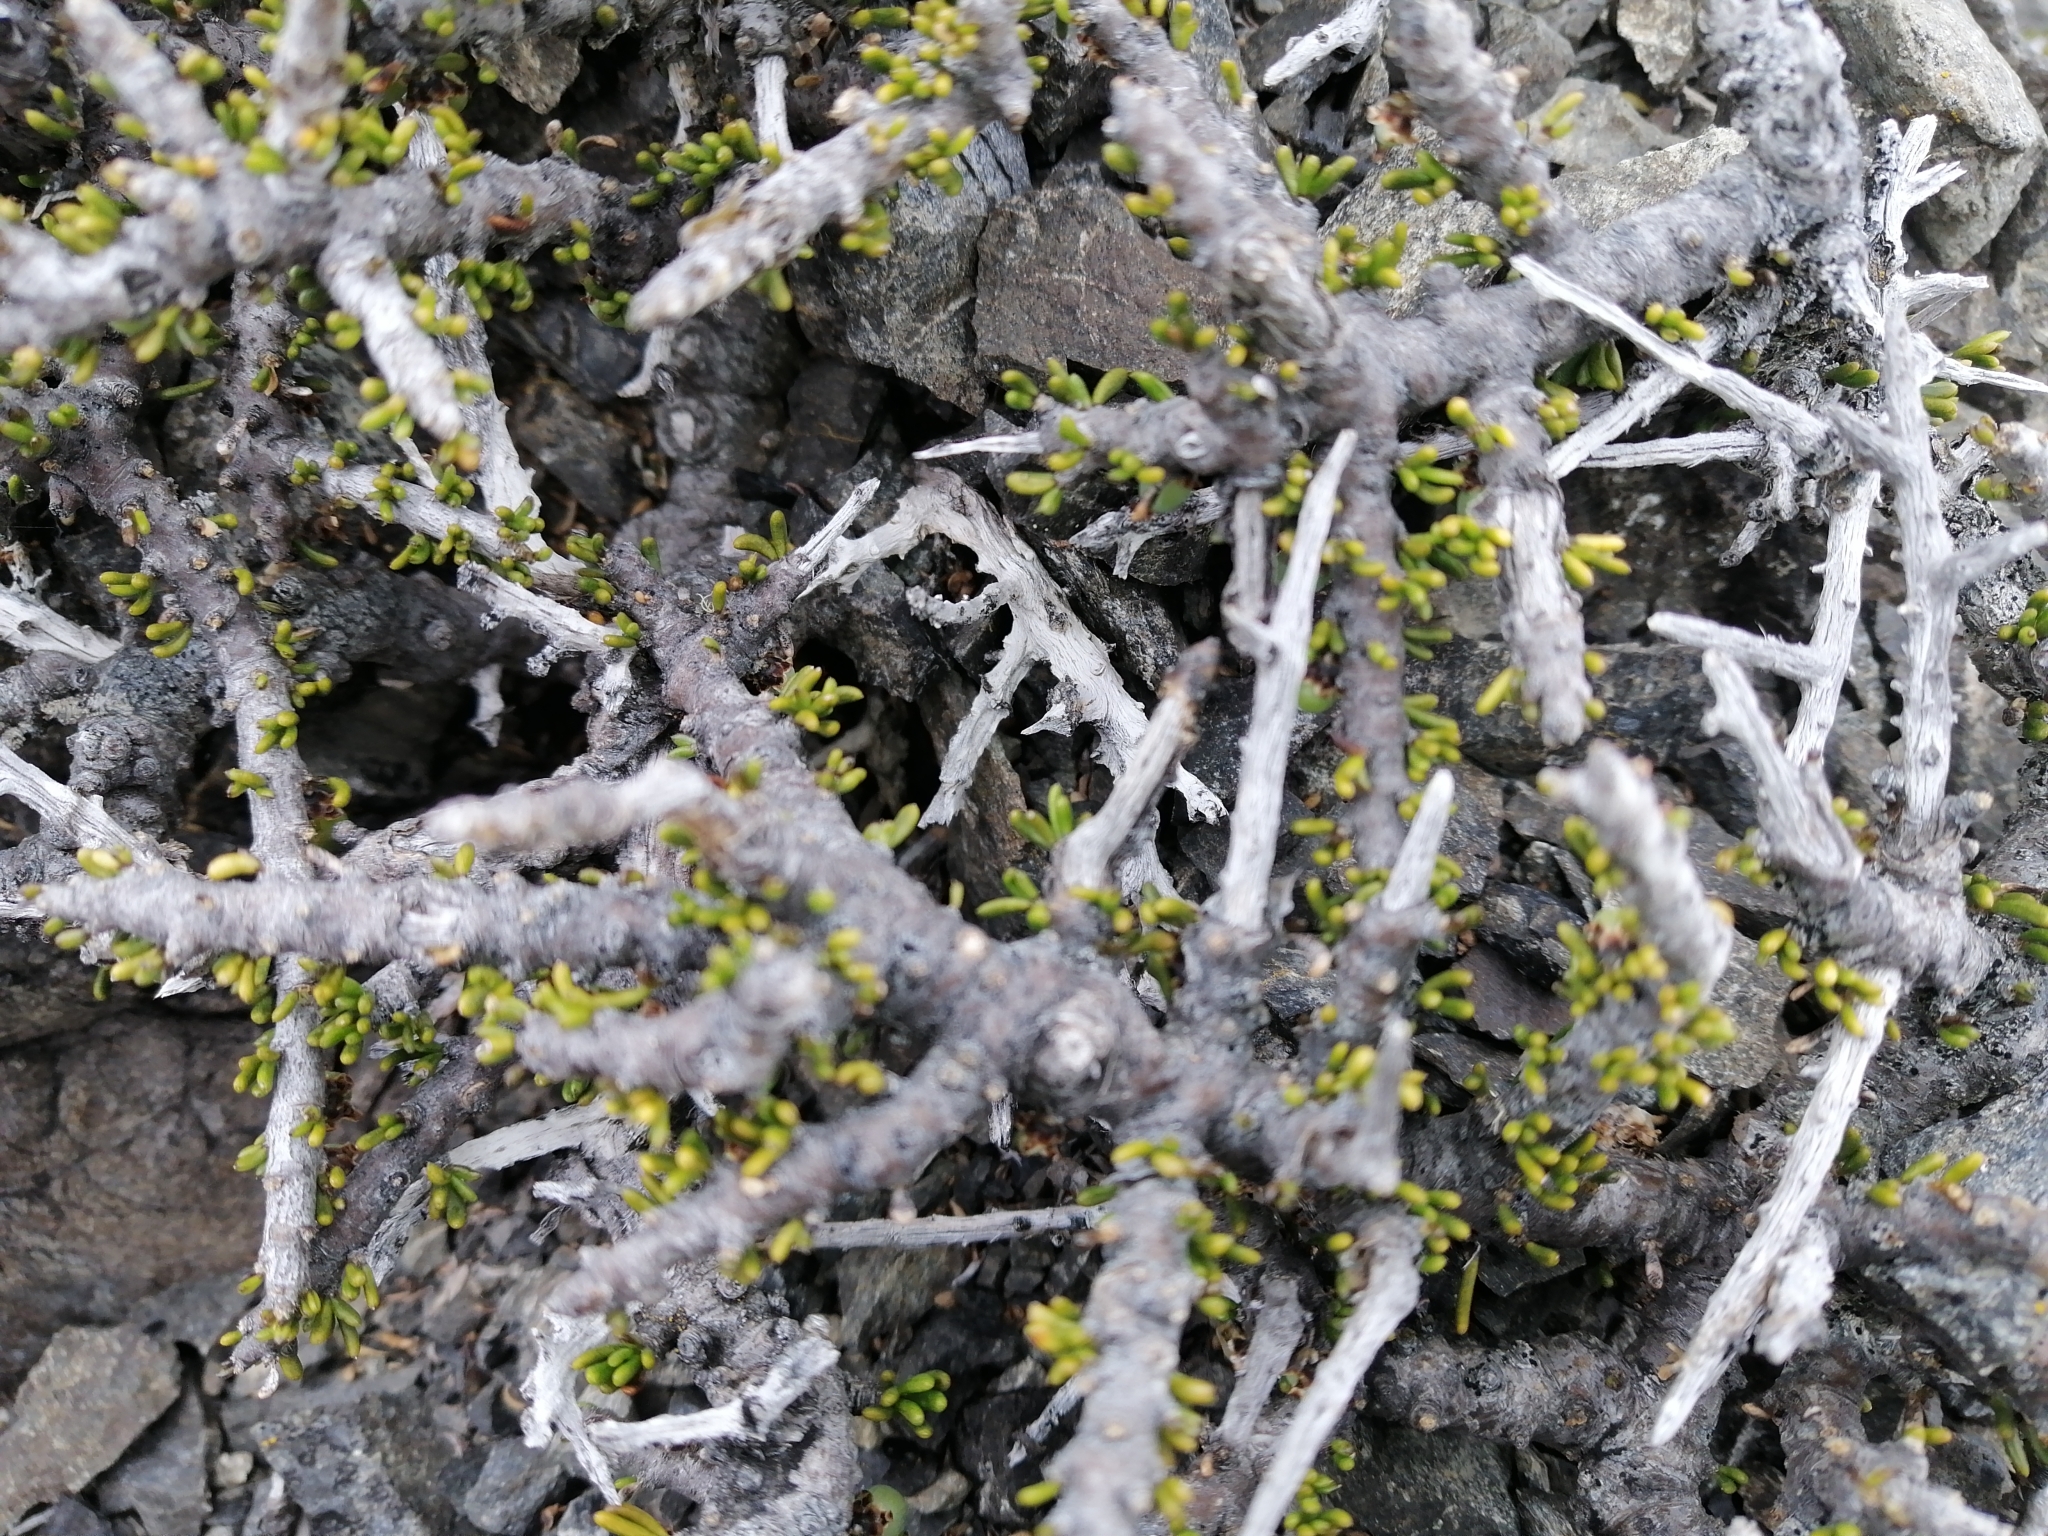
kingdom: Plantae
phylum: Tracheophyta
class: Magnoliopsida
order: Malpighiales
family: Violaceae
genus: Melicytus
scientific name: Melicytus alpinus
